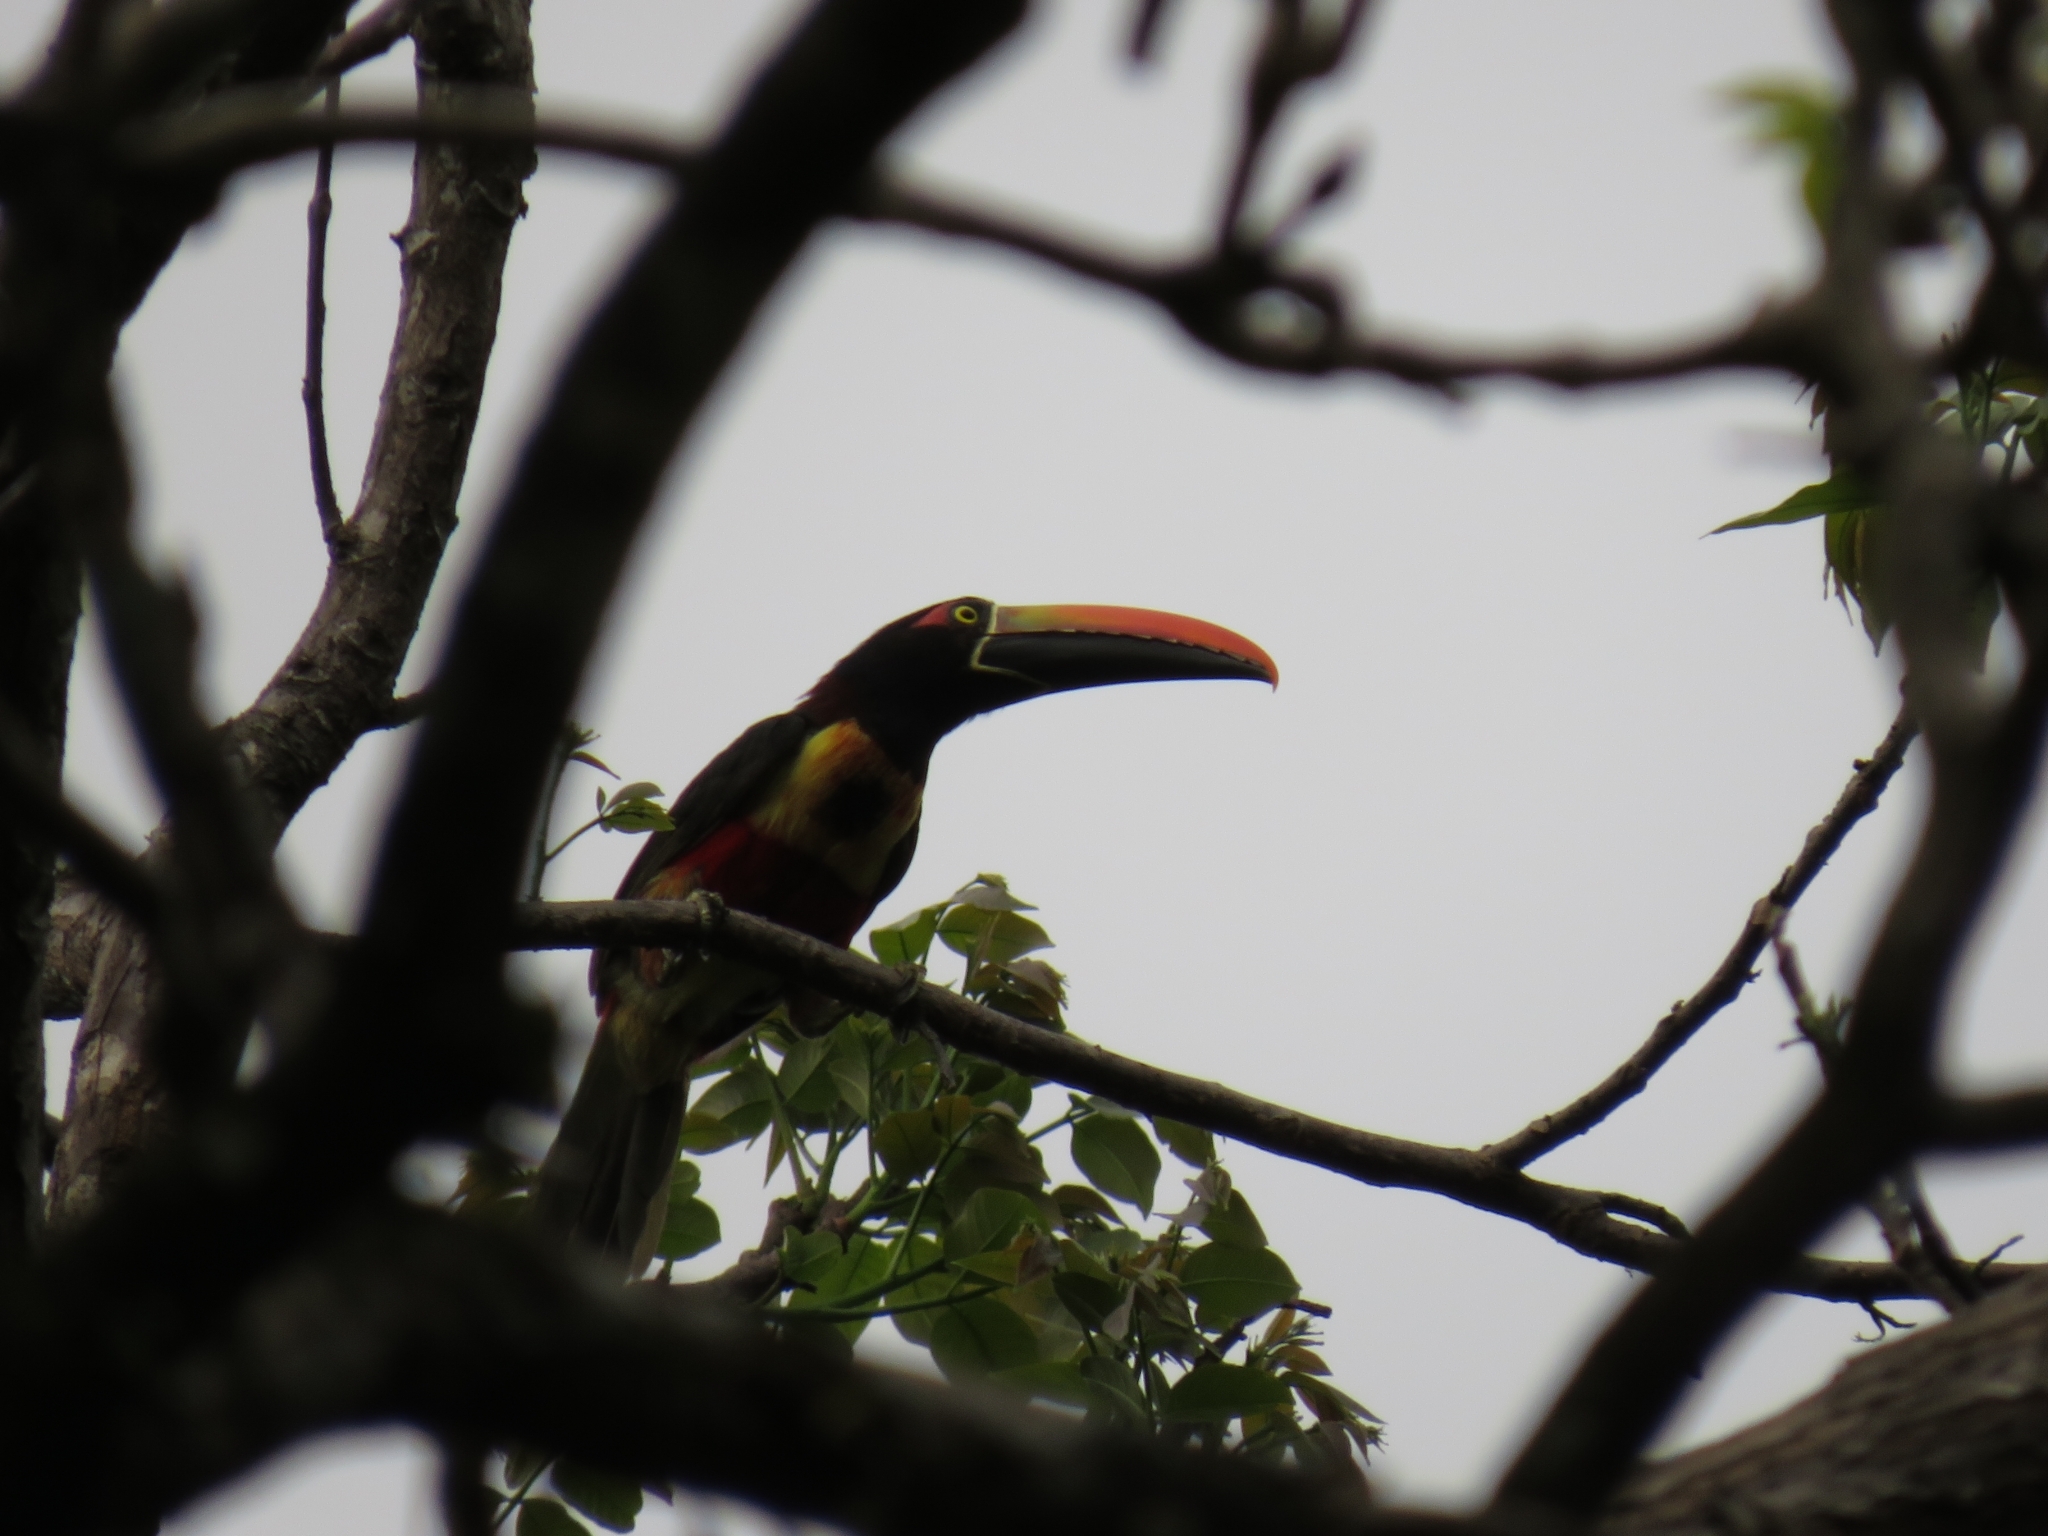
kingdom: Animalia
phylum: Chordata
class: Aves
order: Piciformes
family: Ramphastidae
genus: Pteroglossus
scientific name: Pteroglossus frantzii
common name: Fiery-billed aracari
